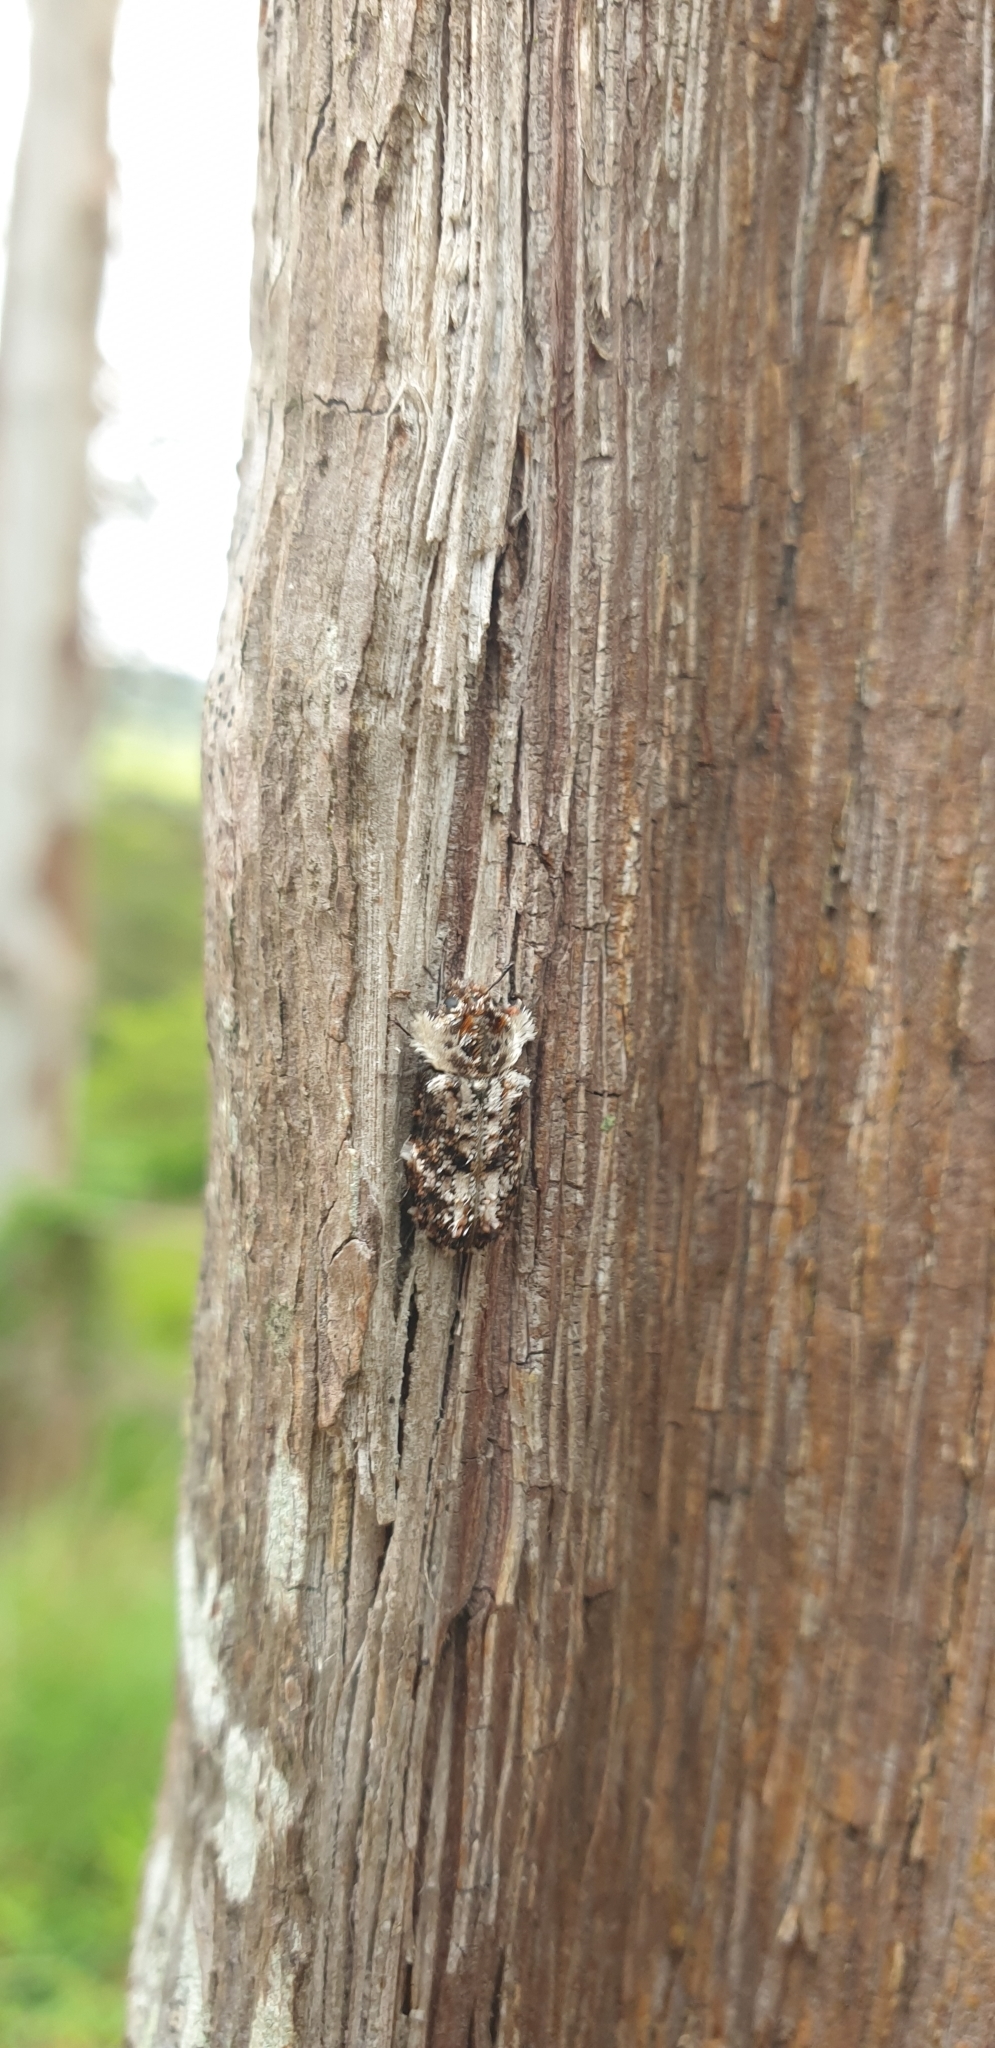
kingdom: Animalia
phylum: Arthropoda
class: Insecta
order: Coleoptera
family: Trogossitidae
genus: Leperina
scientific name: Leperina
